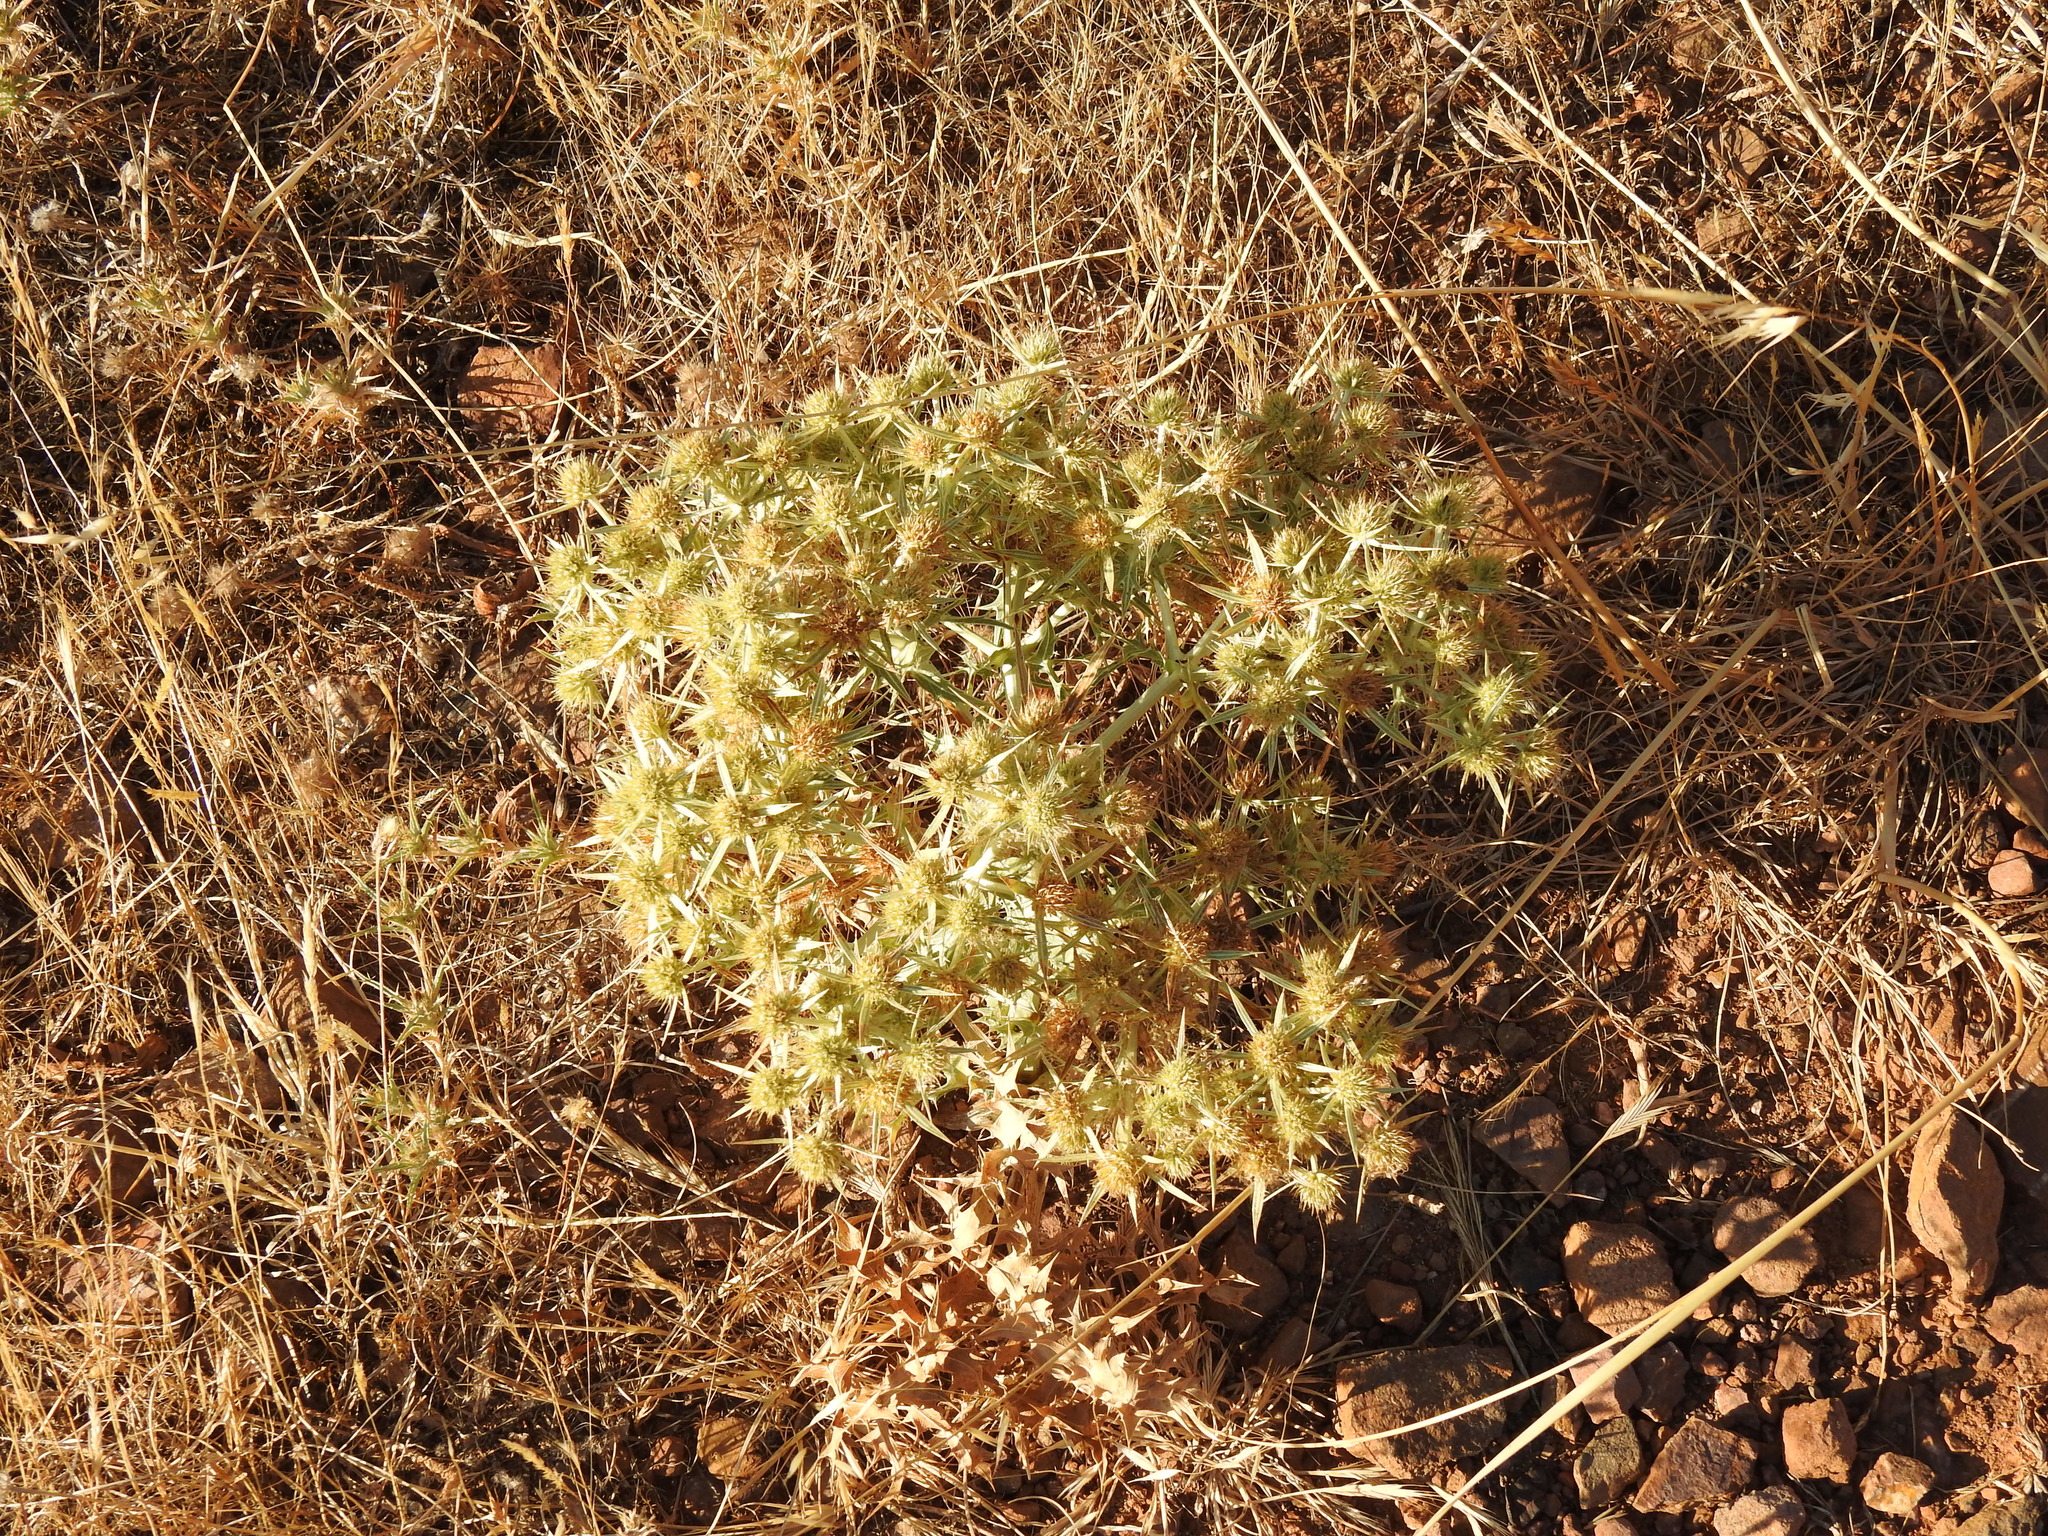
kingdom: Plantae
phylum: Tracheophyta
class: Magnoliopsida
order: Apiales
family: Apiaceae
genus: Eryngium
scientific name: Eryngium campestre
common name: Field eryngo
